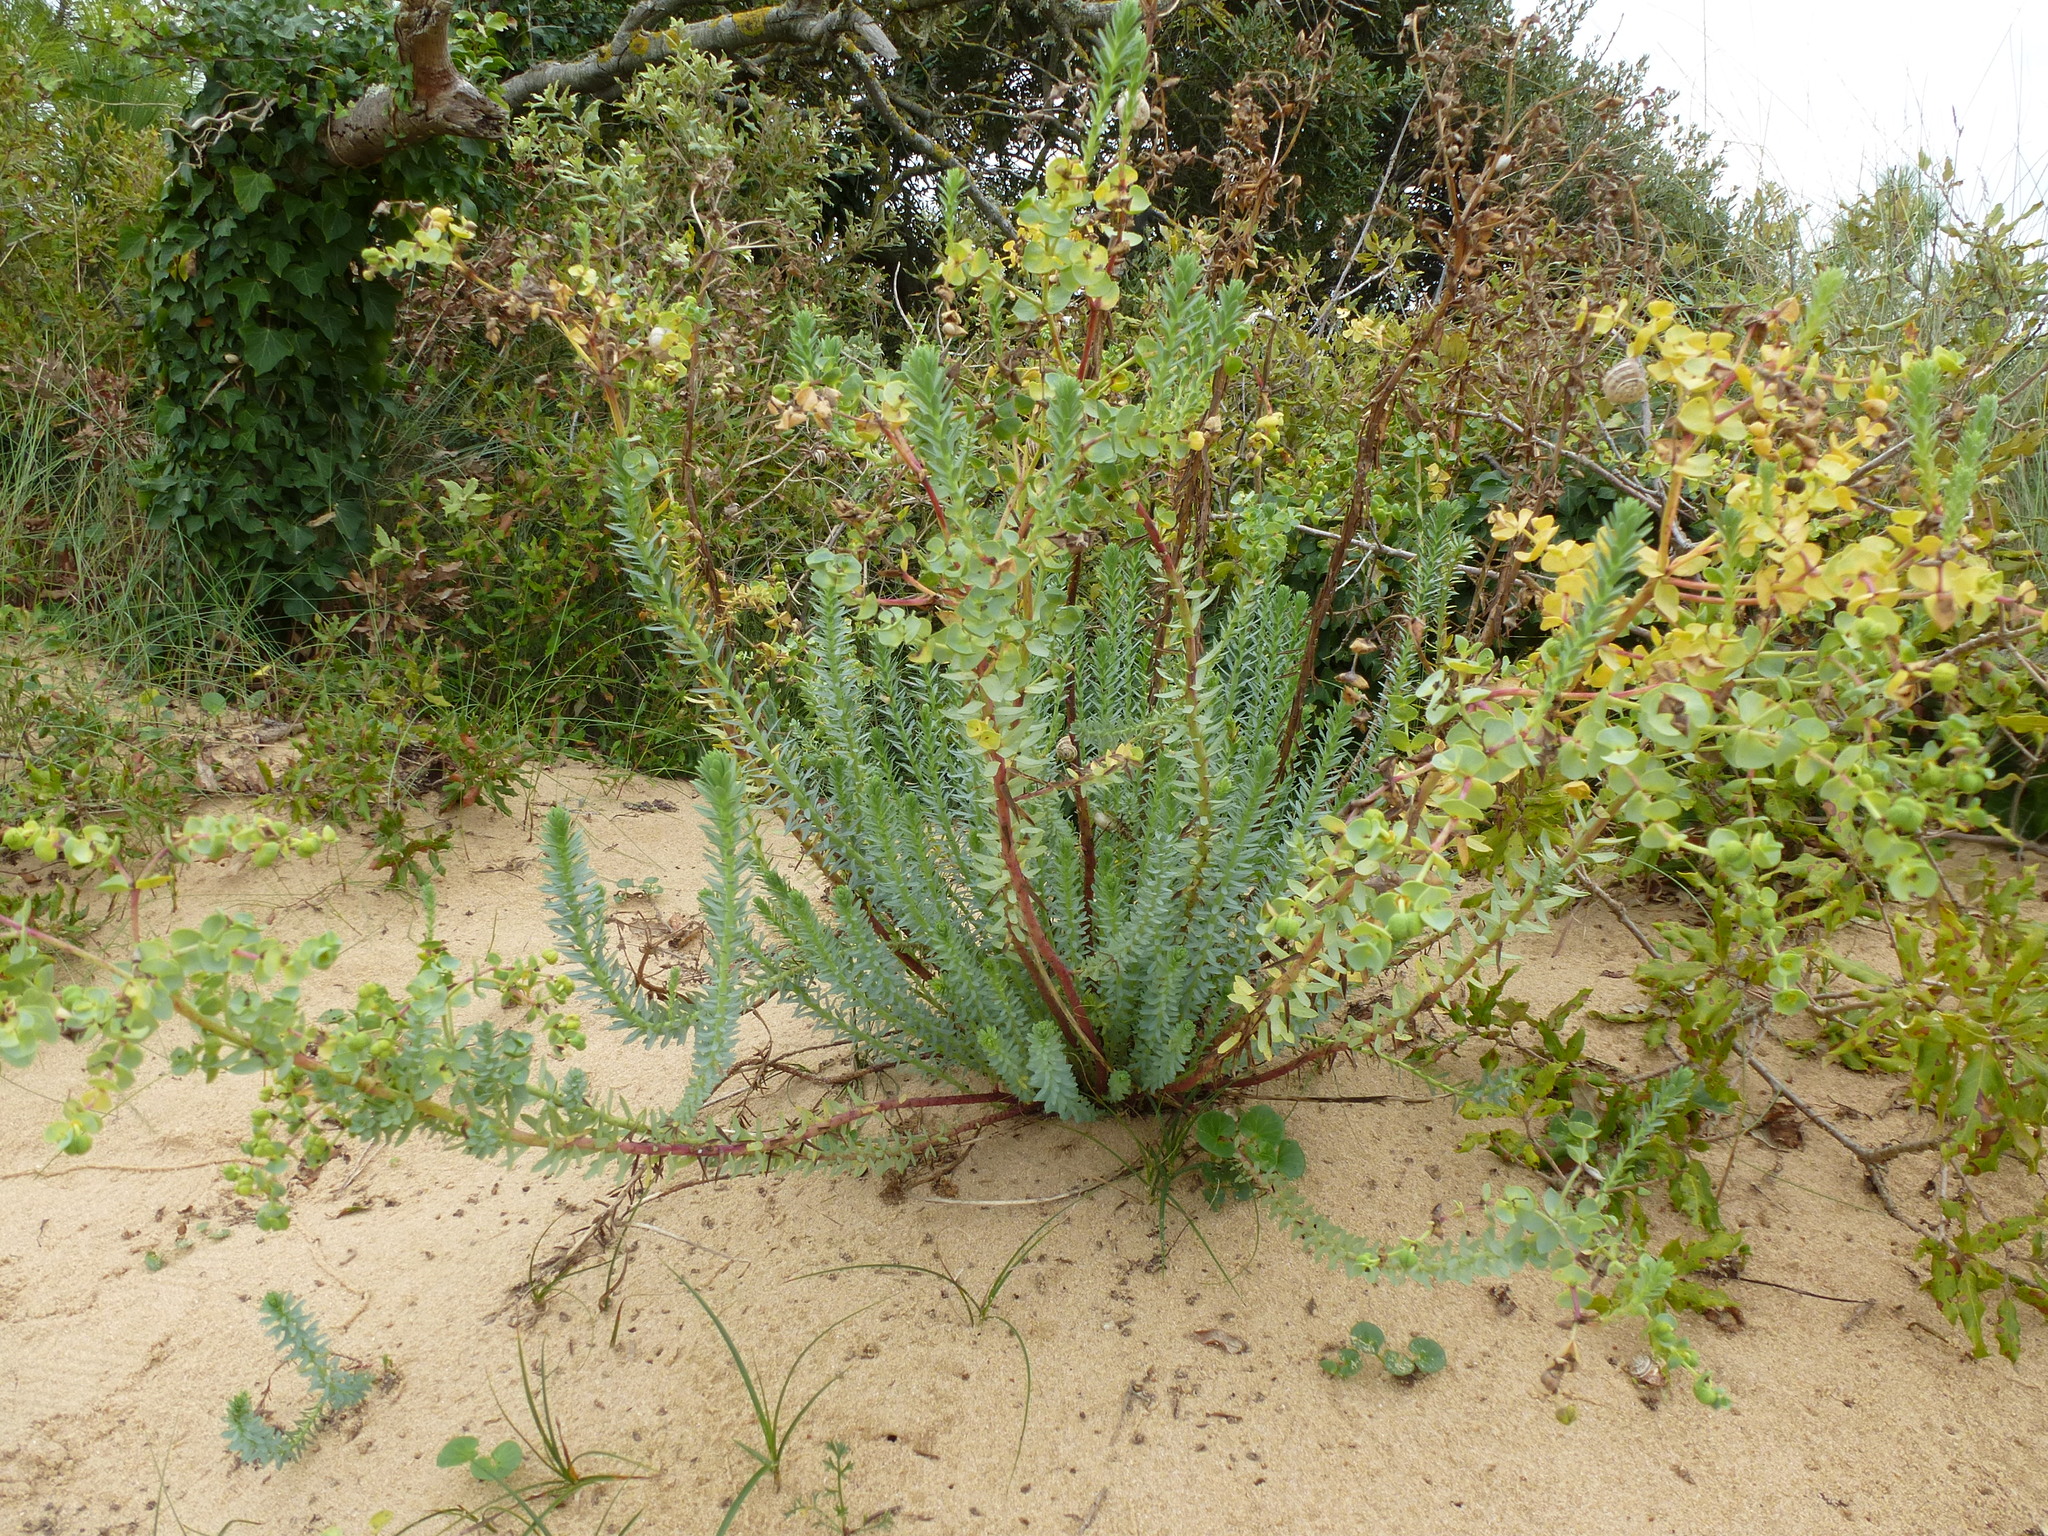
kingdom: Plantae
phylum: Tracheophyta
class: Magnoliopsida
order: Malpighiales
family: Euphorbiaceae
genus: Euphorbia
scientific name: Euphorbia paralias
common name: Sea spurge
